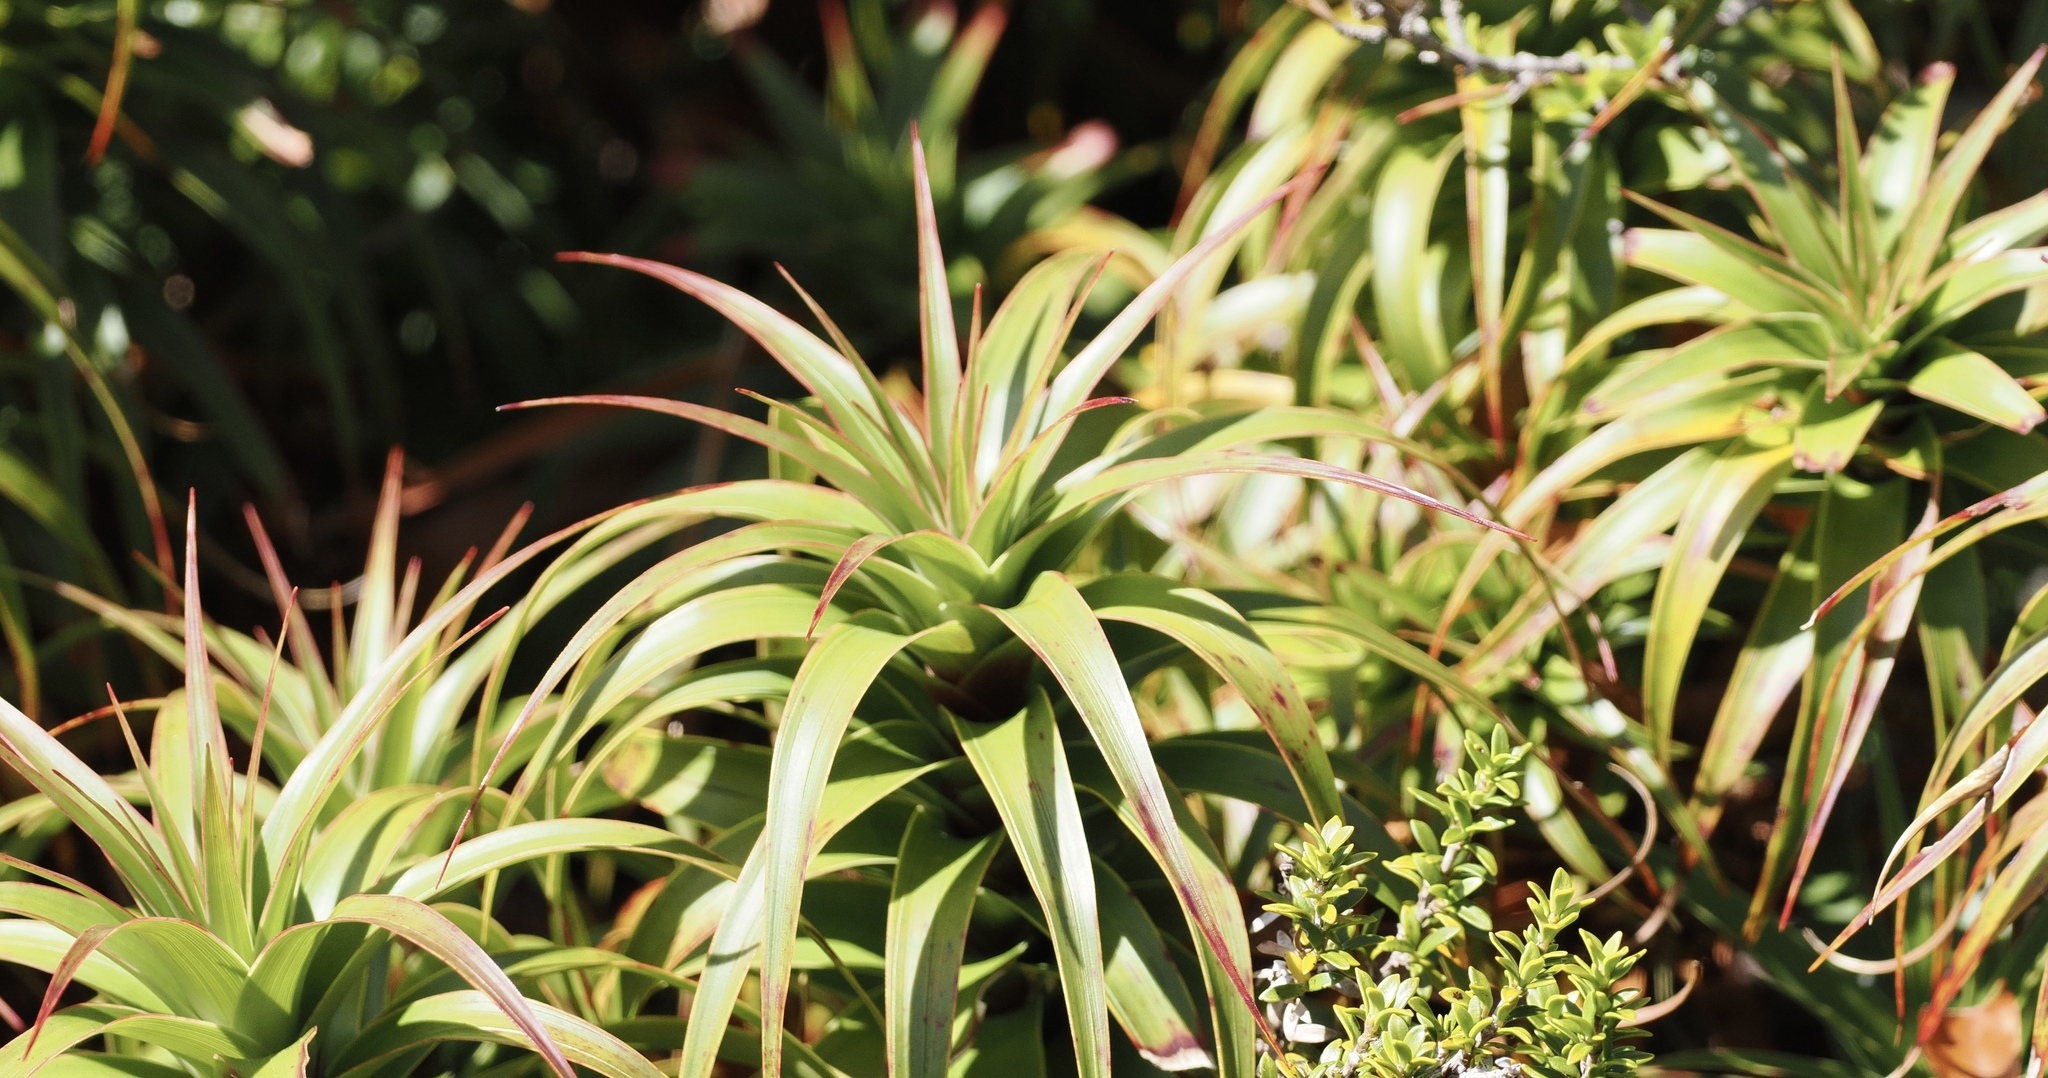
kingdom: Plantae
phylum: Tracheophyta
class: Magnoliopsida
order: Ericales
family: Ericaceae
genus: Dracophyllum
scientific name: Dracophyllum menziesii
